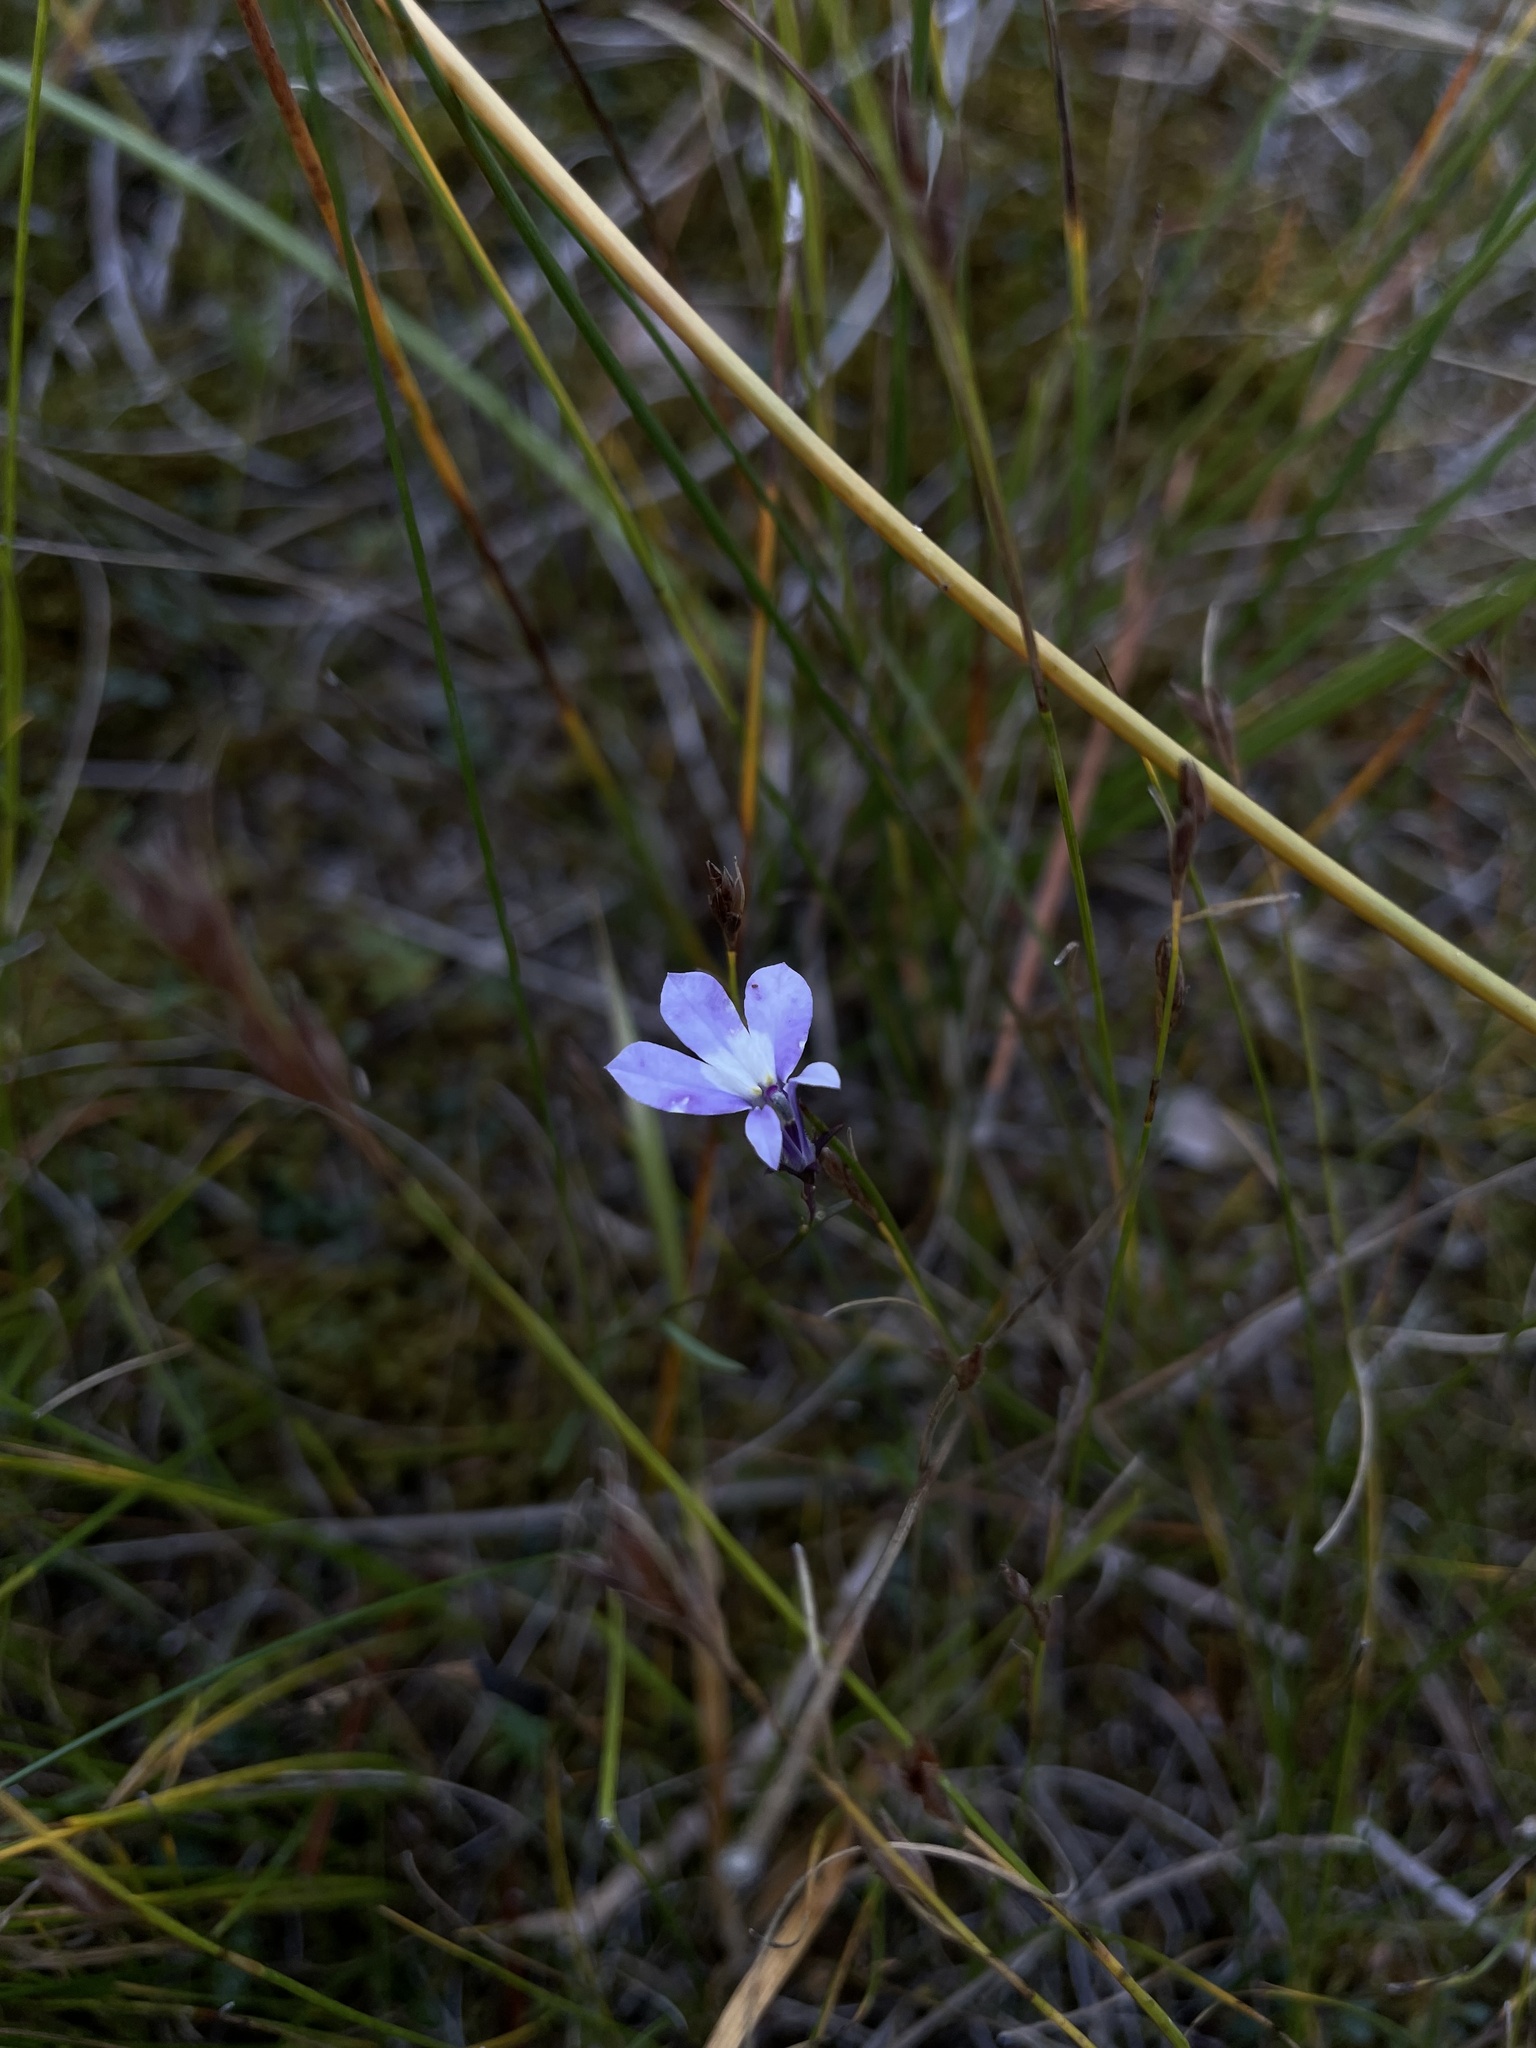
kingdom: Plantae
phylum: Tracheophyta
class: Magnoliopsida
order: Asterales
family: Campanulaceae
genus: Lobelia
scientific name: Lobelia kalmii
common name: Kalm's lobelia
